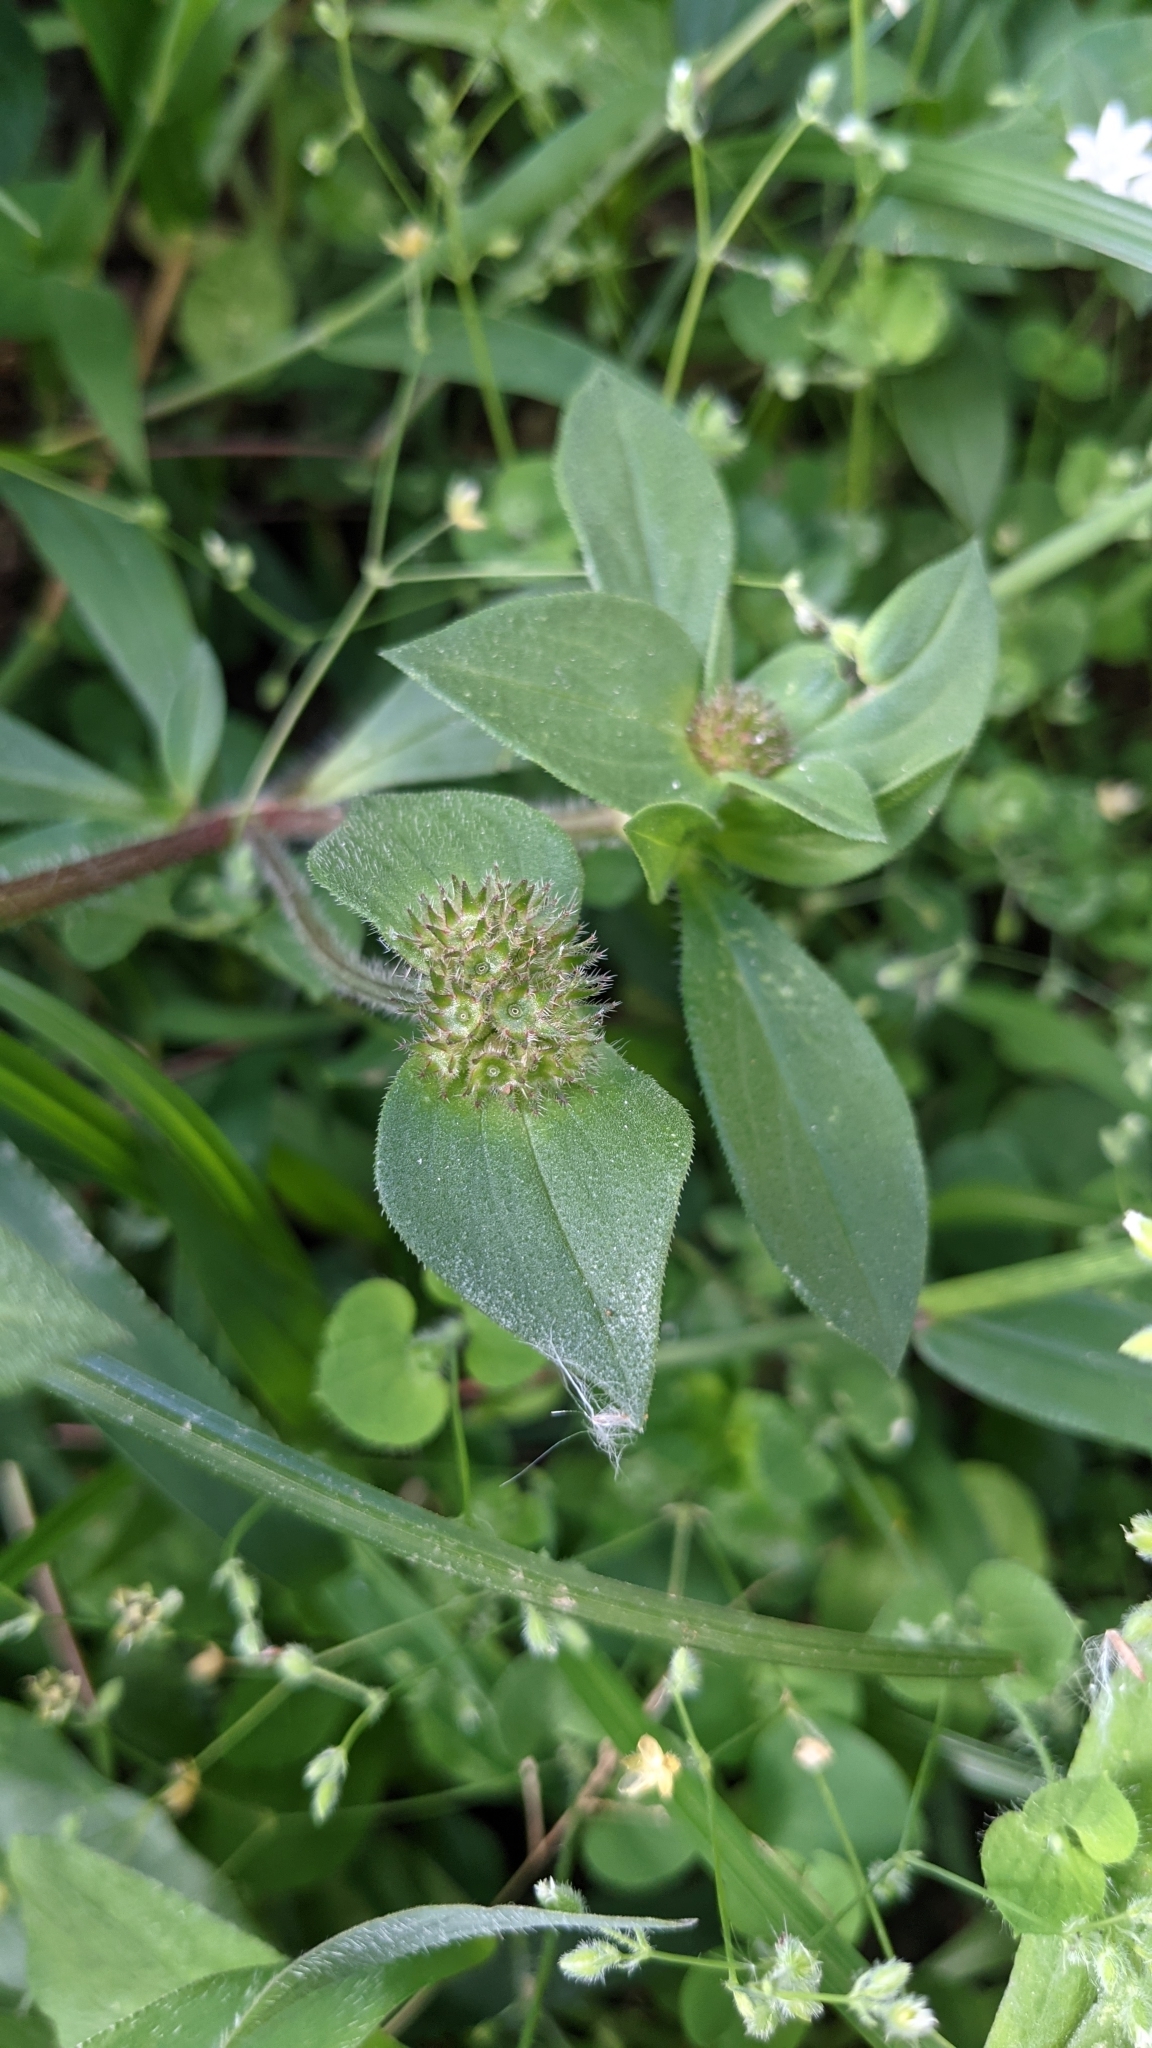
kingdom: Plantae
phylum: Tracheophyta
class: Magnoliopsida
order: Gentianales
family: Rubiaceae
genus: Richardia
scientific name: Richardia scabra
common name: Rough mexican clover
